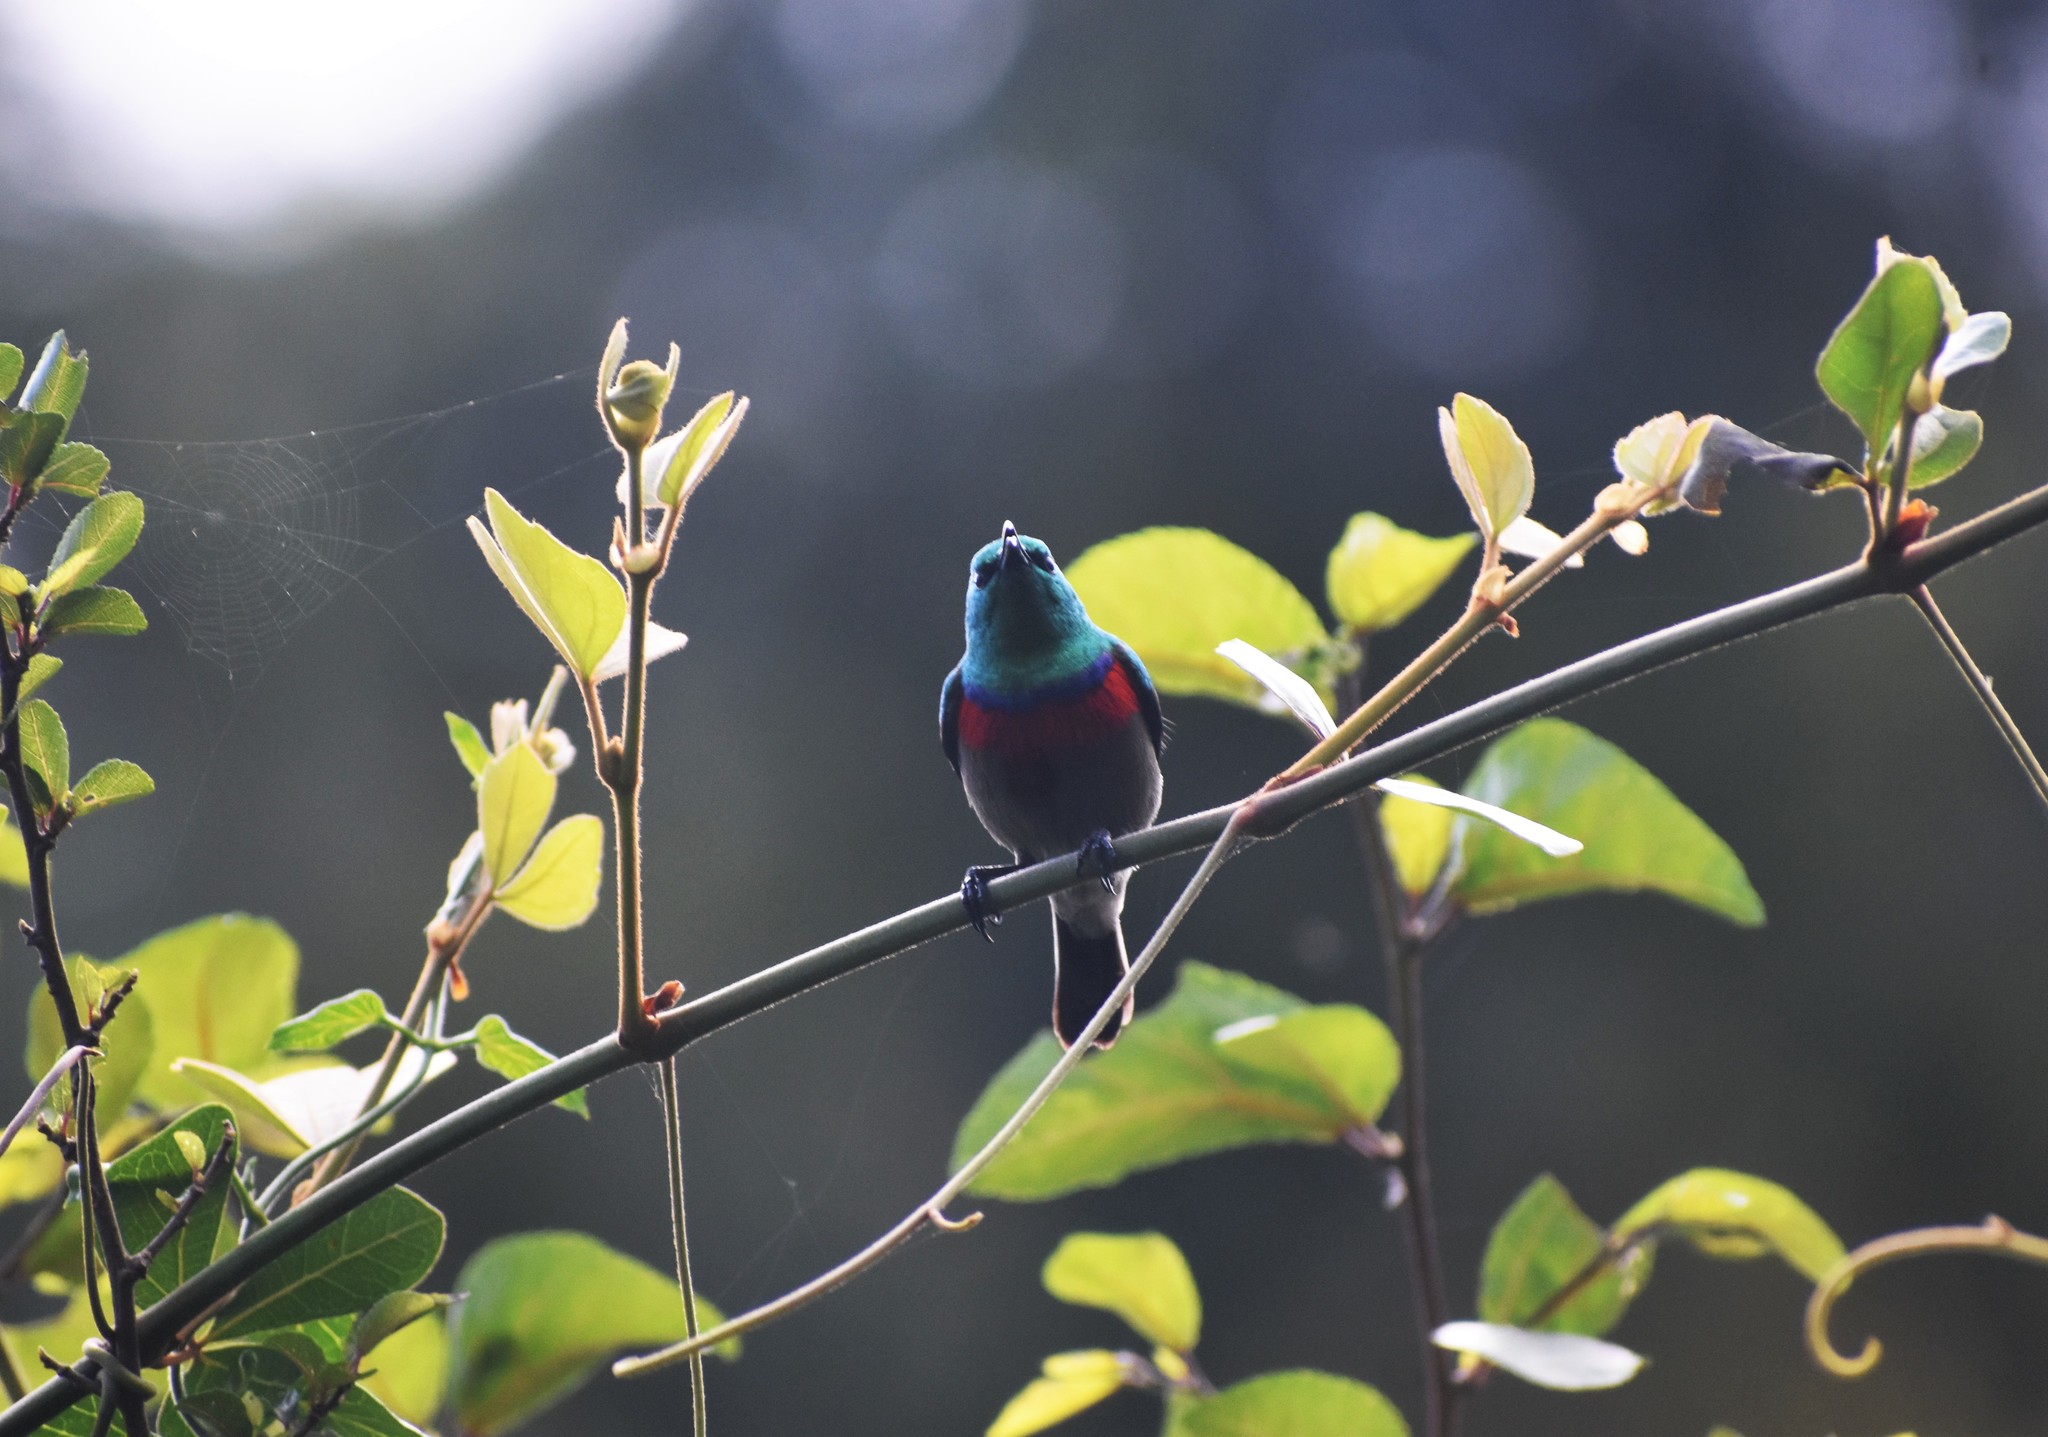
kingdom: Animalia
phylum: Chordata
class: Aves
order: Passeriformes
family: Nectariniidae
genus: Cinnyris
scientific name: Cinnyris chalybeus
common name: Southern double-collared sunbird
